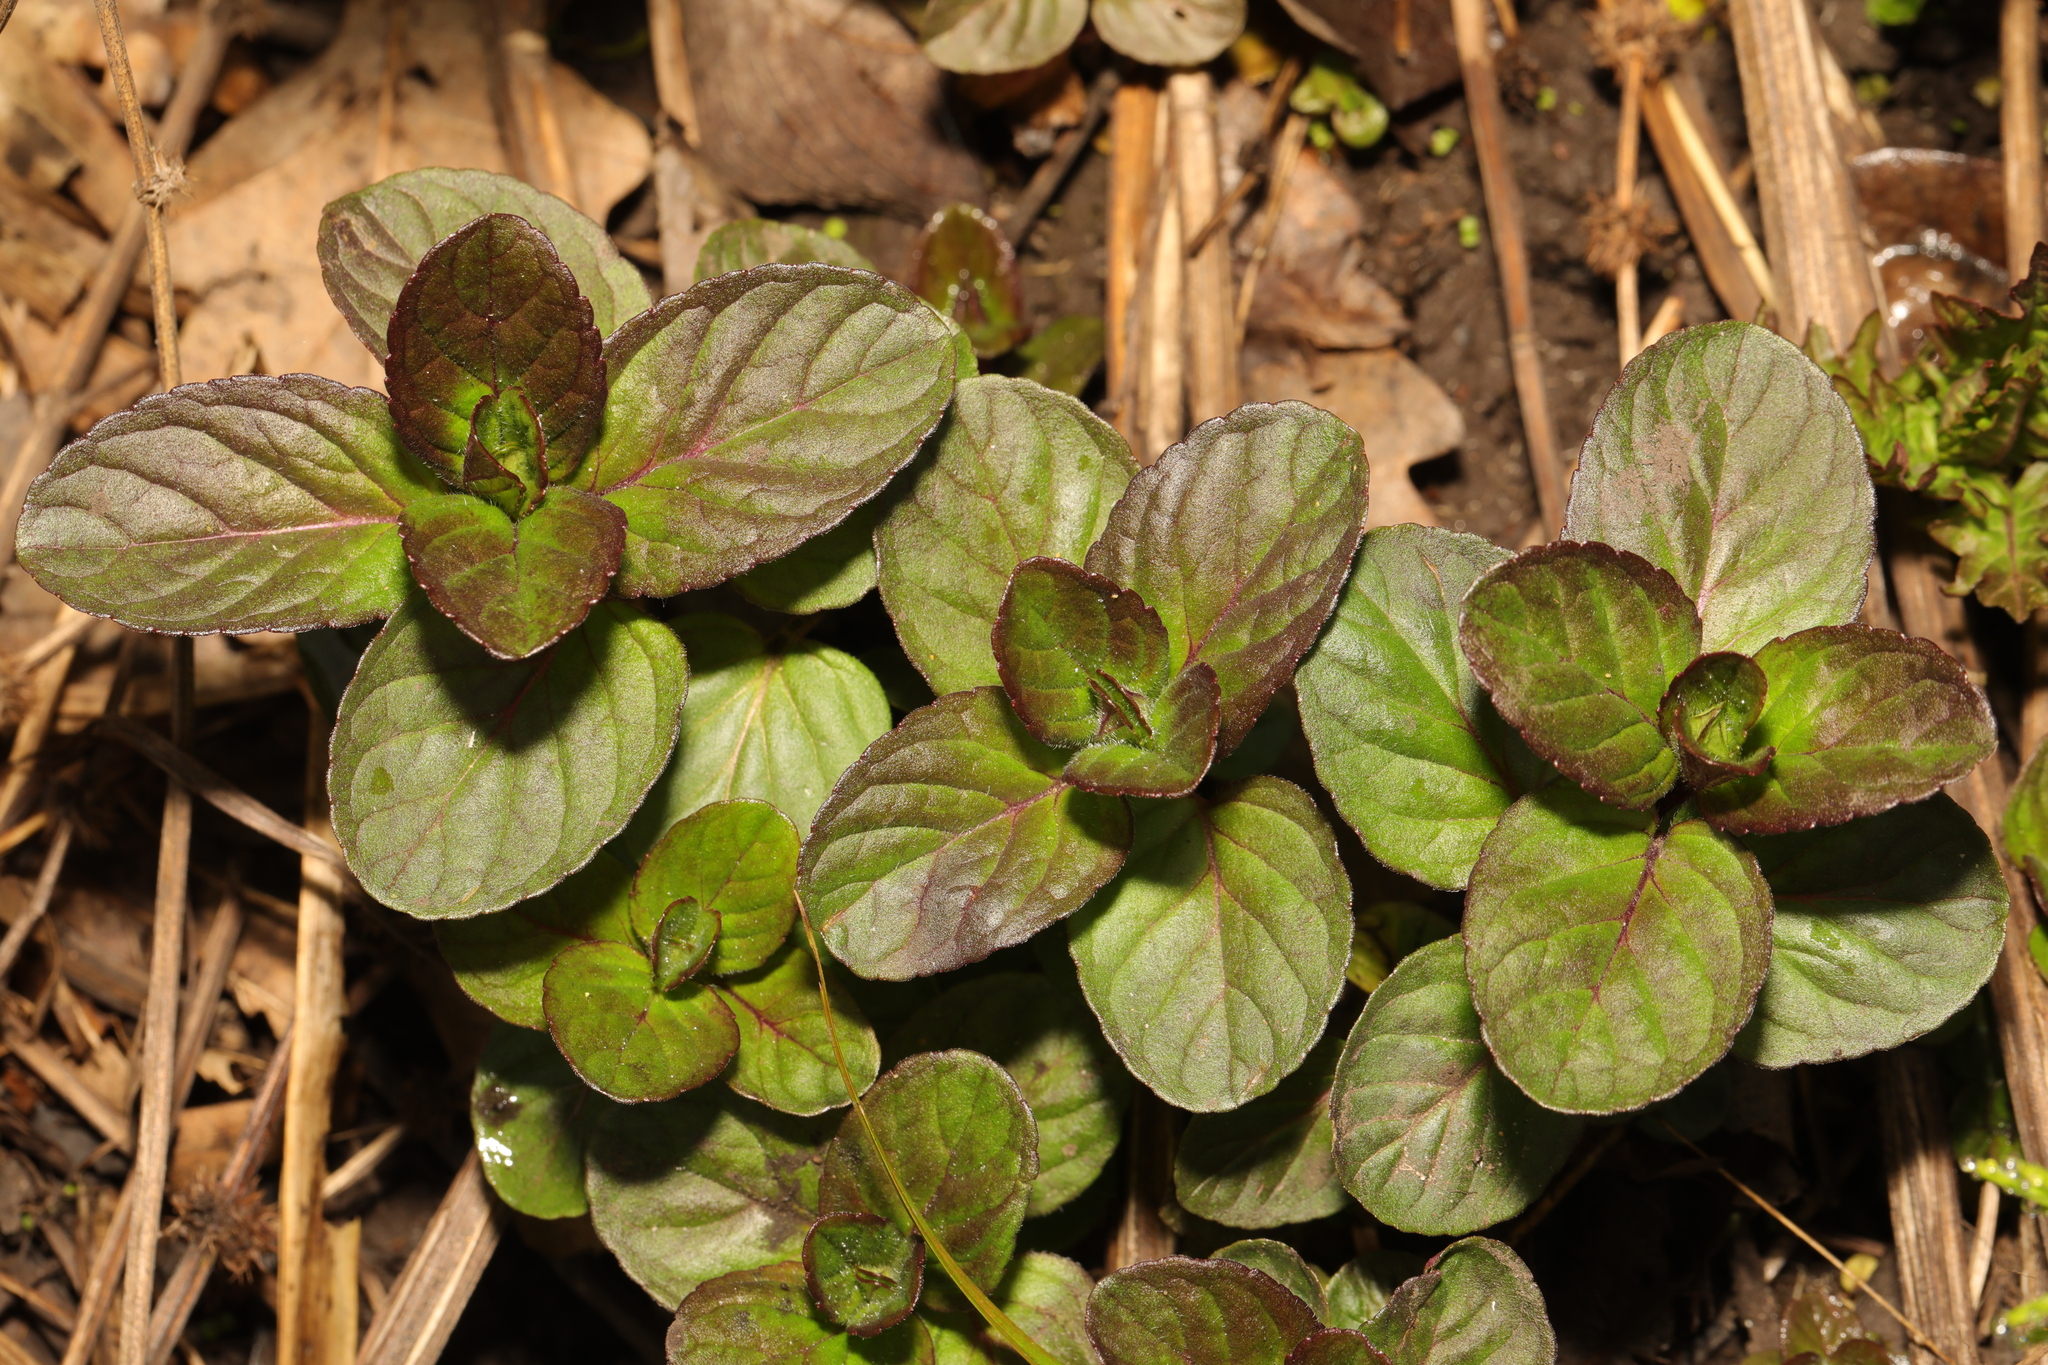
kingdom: Plantae
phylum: Tracheophyta
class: Magnoliopsida
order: Lamiales
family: Lamiaceae
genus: Mentha
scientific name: Mentha aquatica
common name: Water mint
